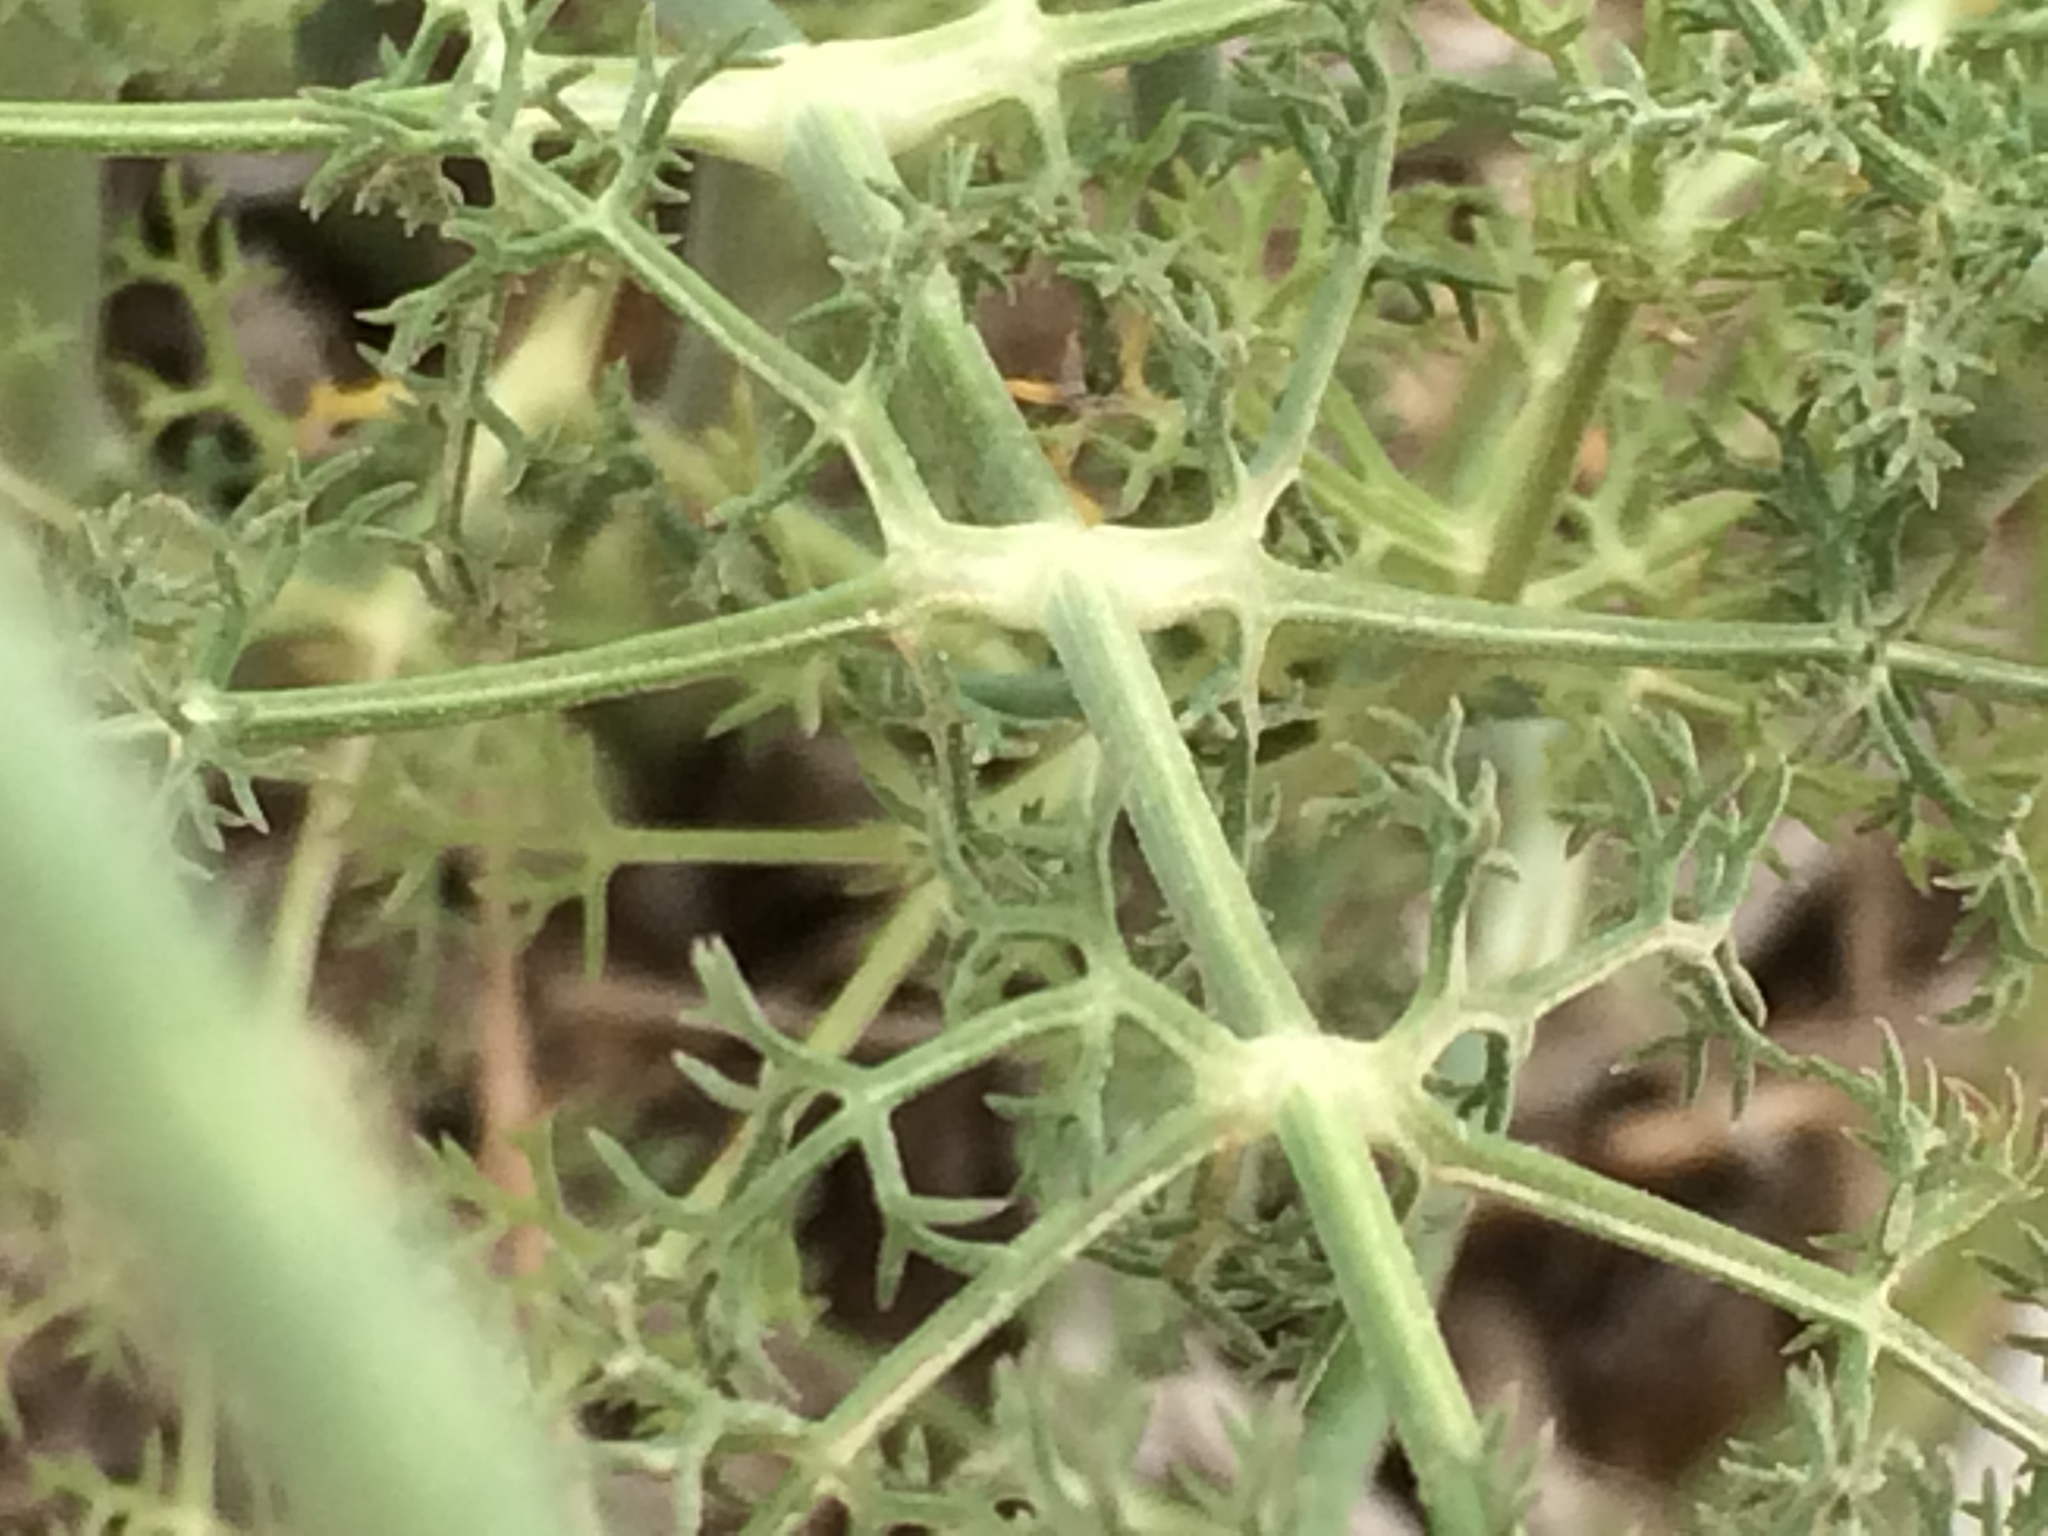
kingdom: Plantae
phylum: Tracheophyta
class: Magnoliopsida
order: Apiales
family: Apiaceae
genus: Foeniculum
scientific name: Foeniculum vulgare
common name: Fennel
